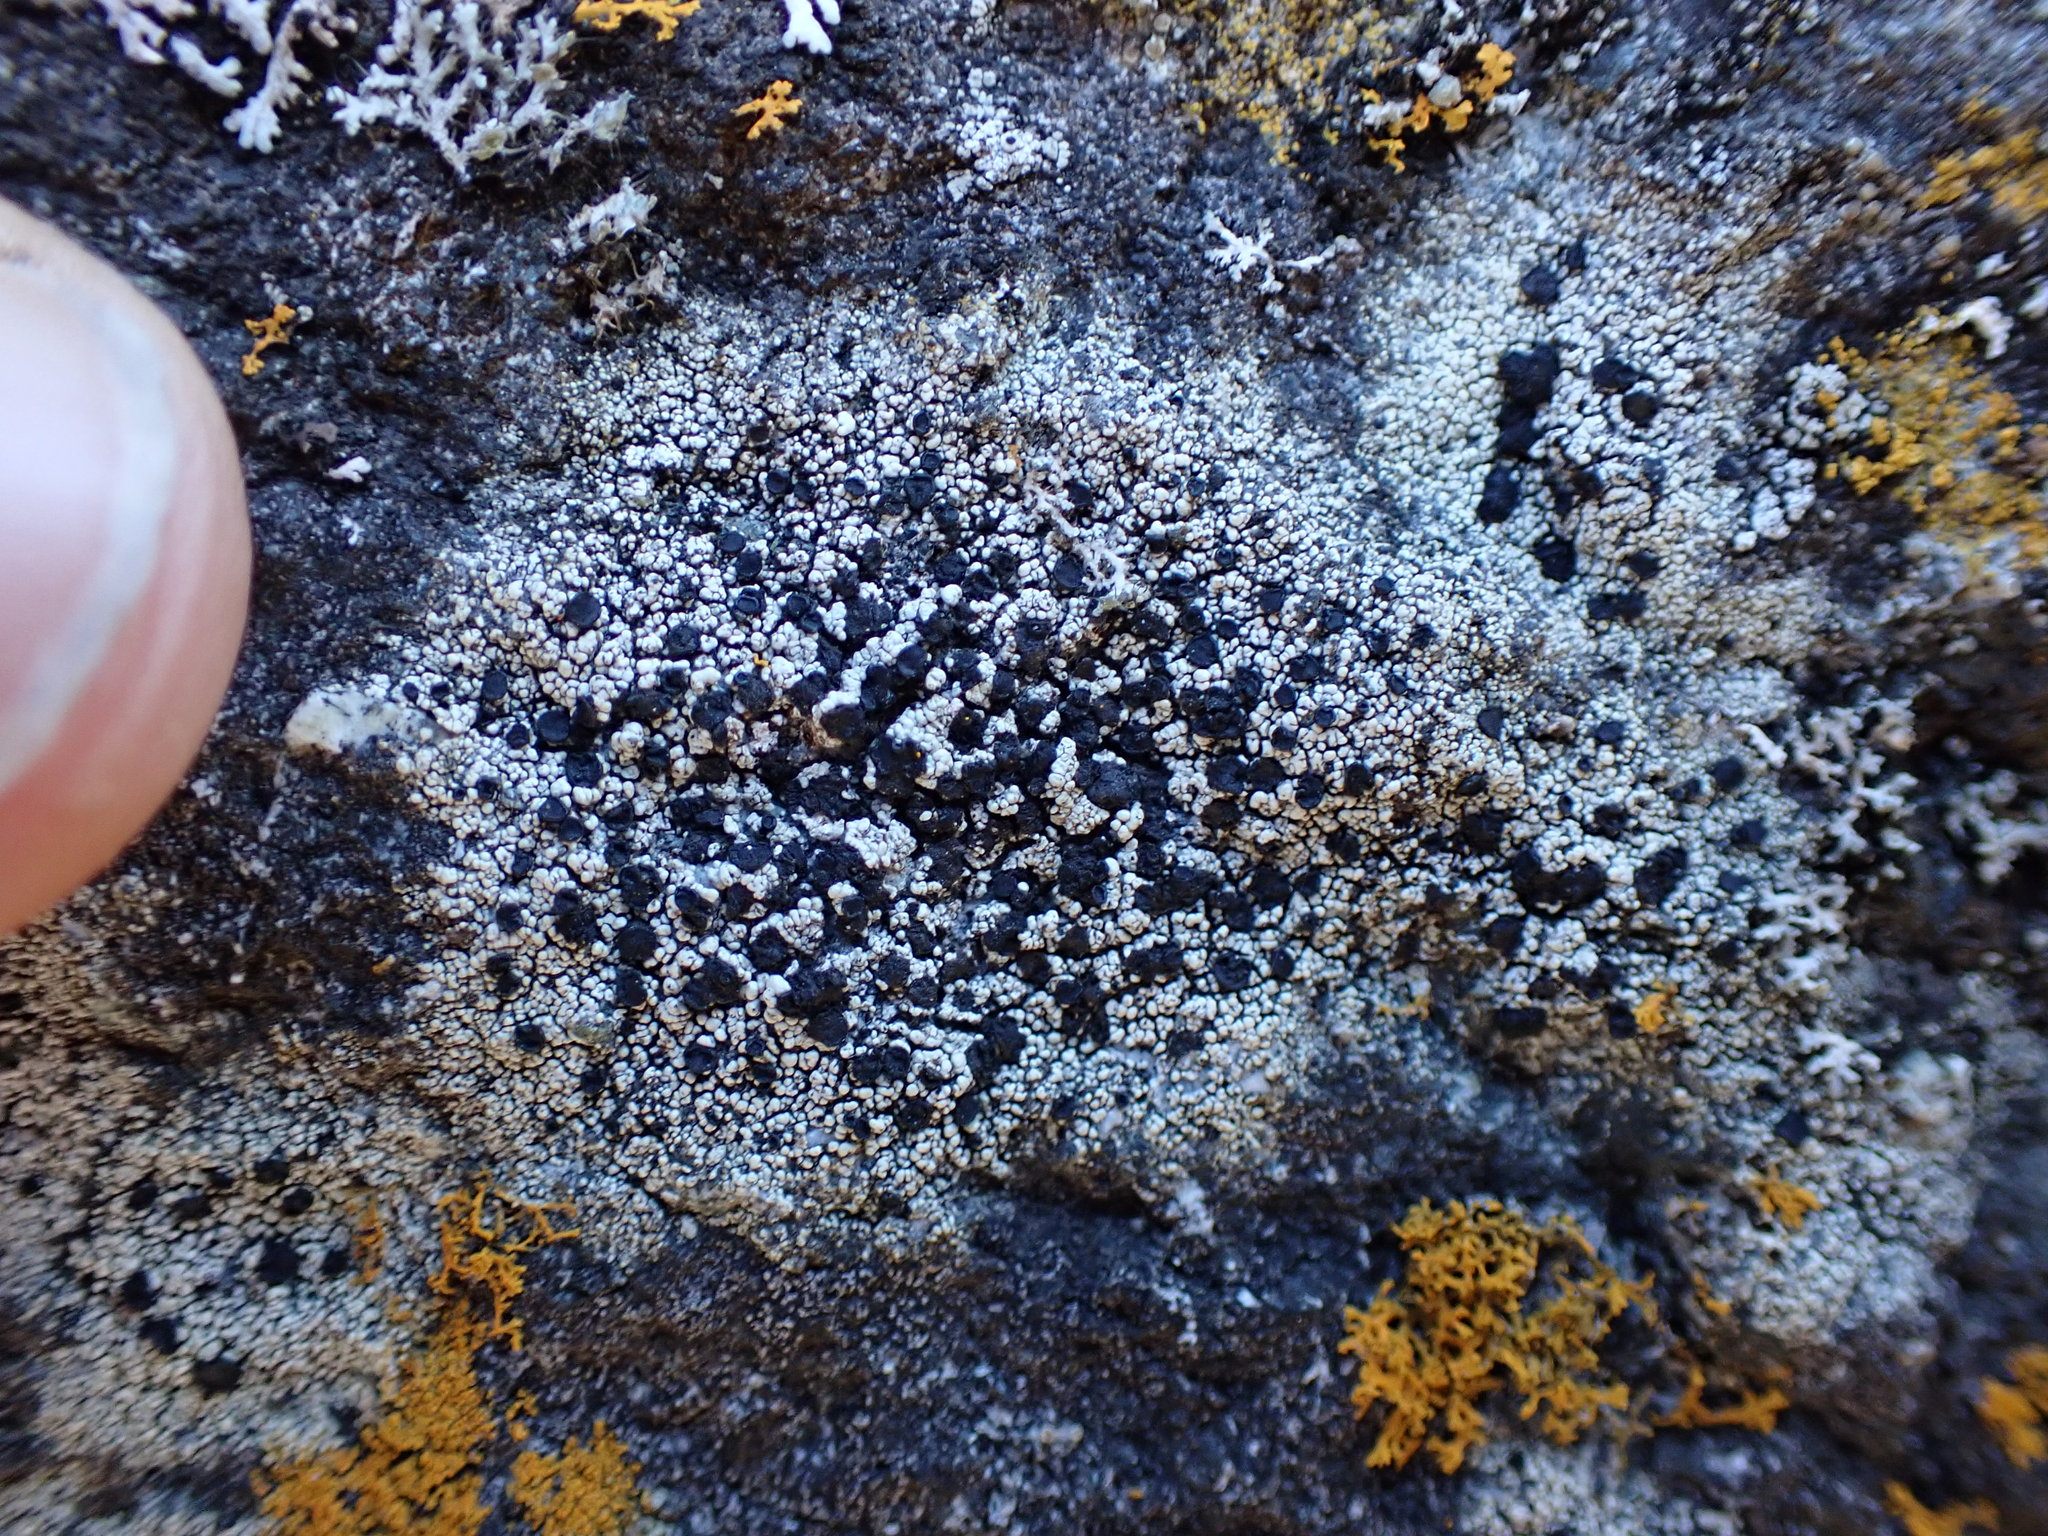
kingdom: Fungi
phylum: Ascomycota
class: Lecanoromycetes
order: Lecanorales
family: Lecanoraceae
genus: Lecidella
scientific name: Lecidella asema
